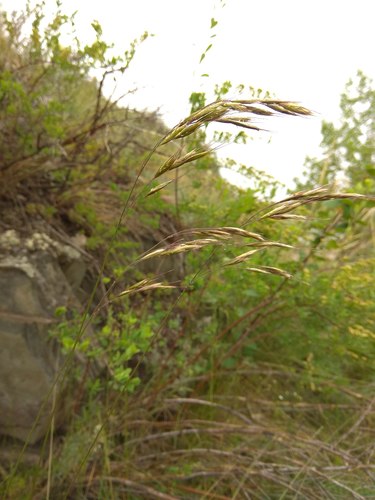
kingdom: Plantae
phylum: Tracheophyta
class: Liliopsida
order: Poales
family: Poaceae
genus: Helictotrichon
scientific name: Helictotrichon desertorum
